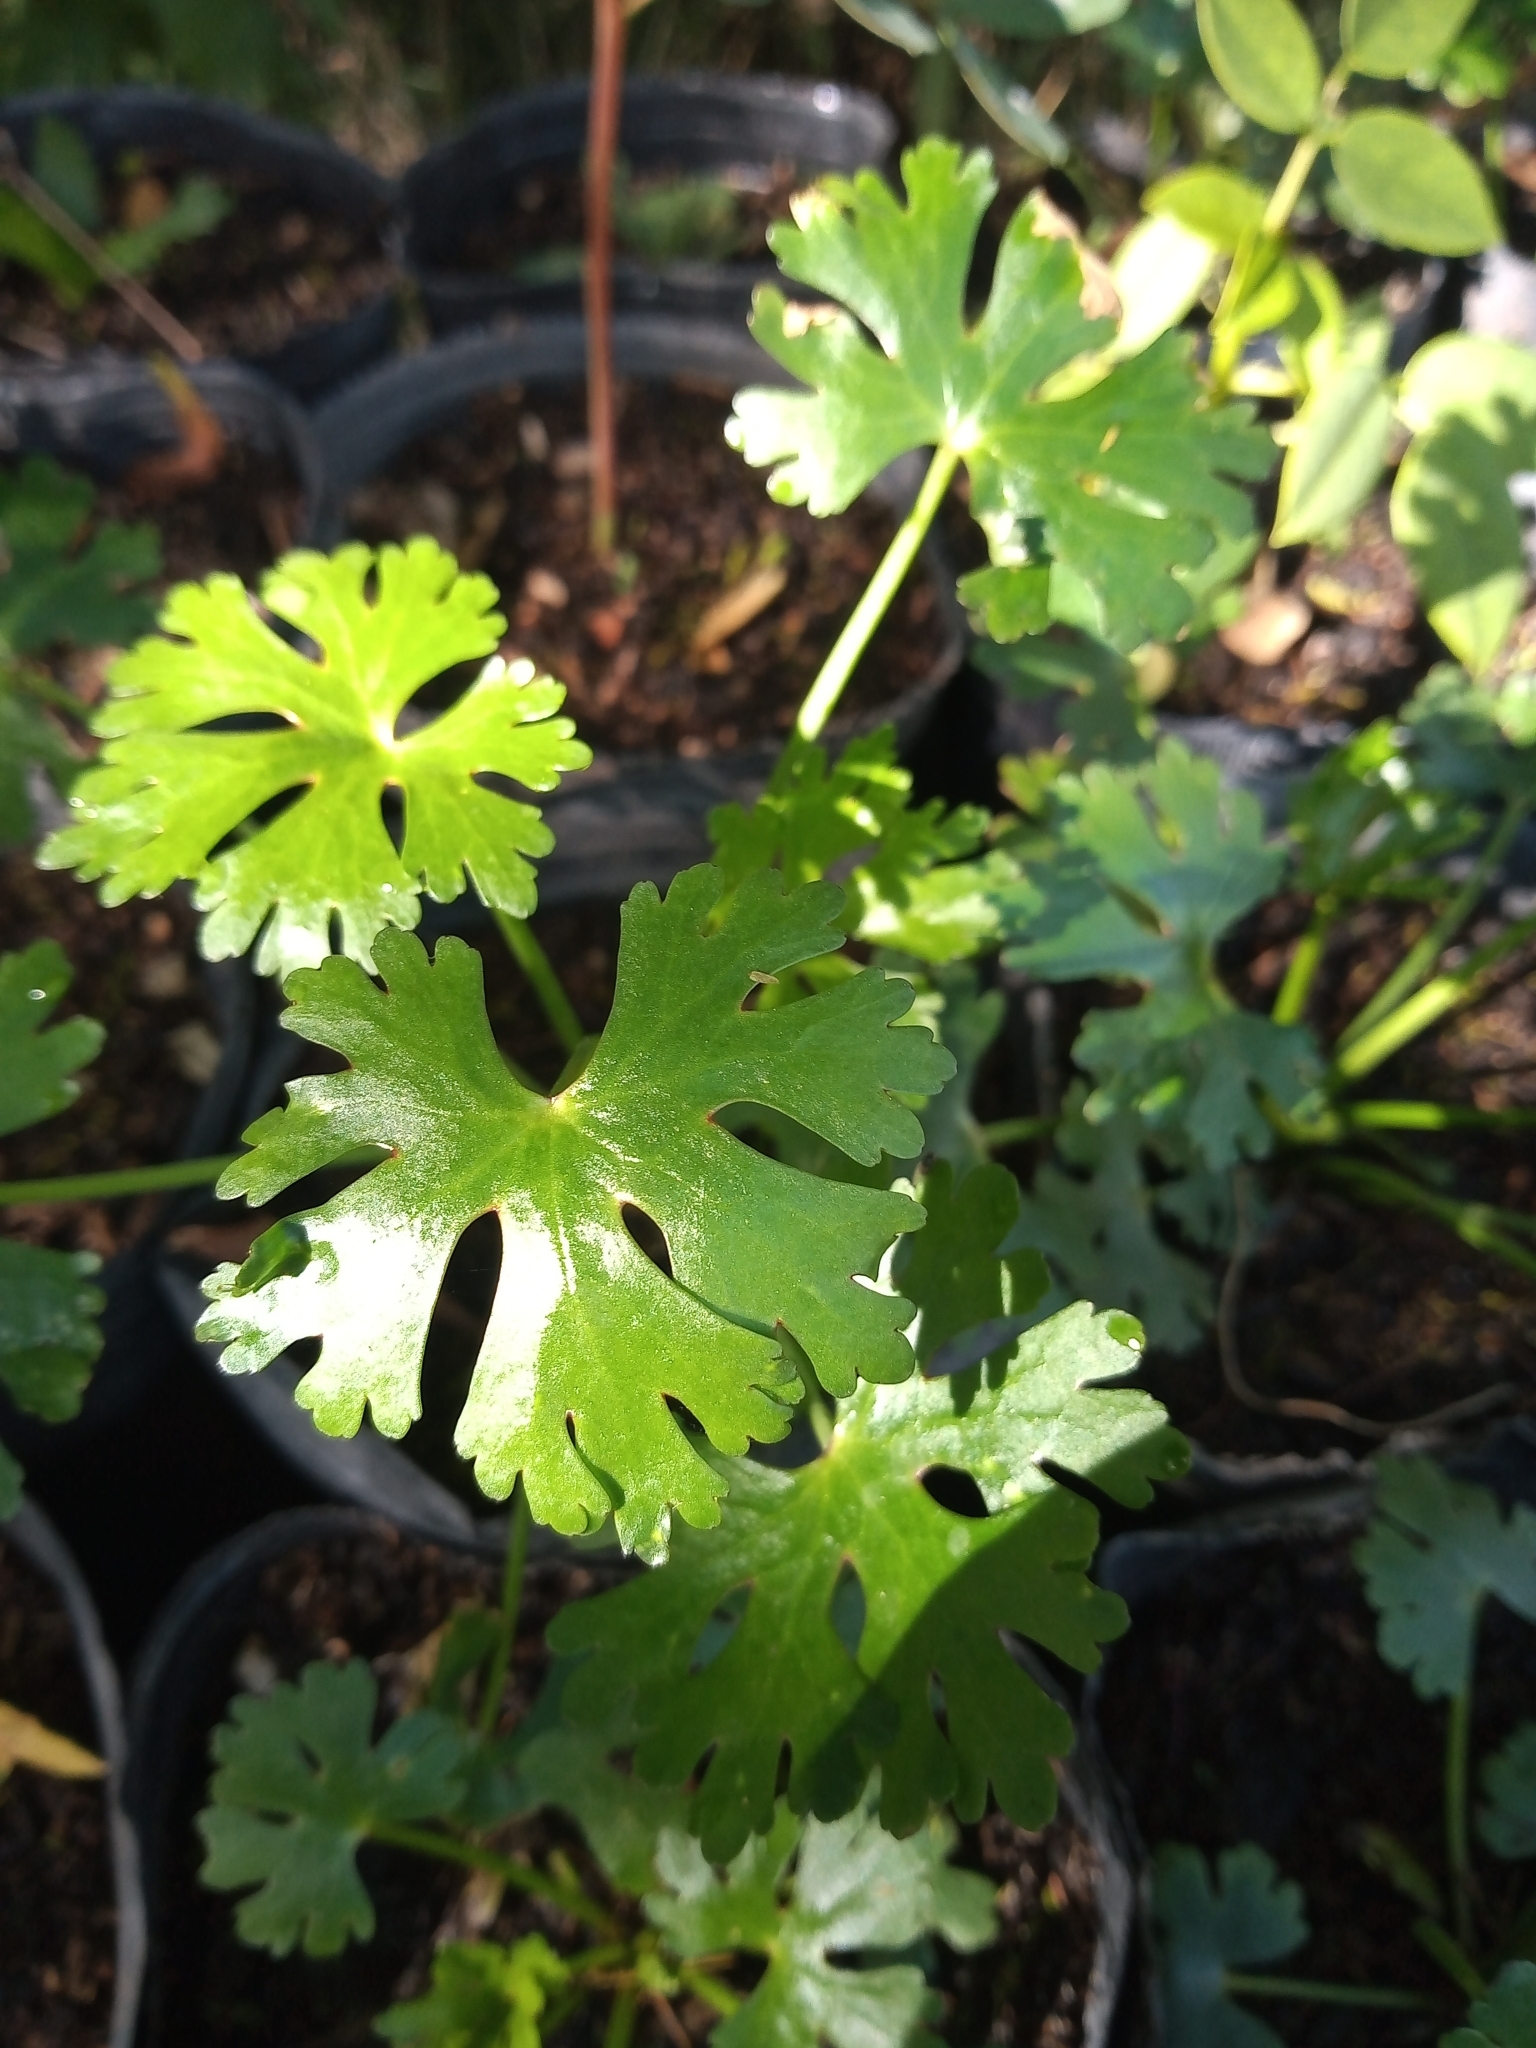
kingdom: Plantae
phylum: Tracheophyta
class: Magnoliopsida
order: Ranunculales
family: Ranunculaceae
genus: Ranunculus
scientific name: Ranunculus apiifolius
